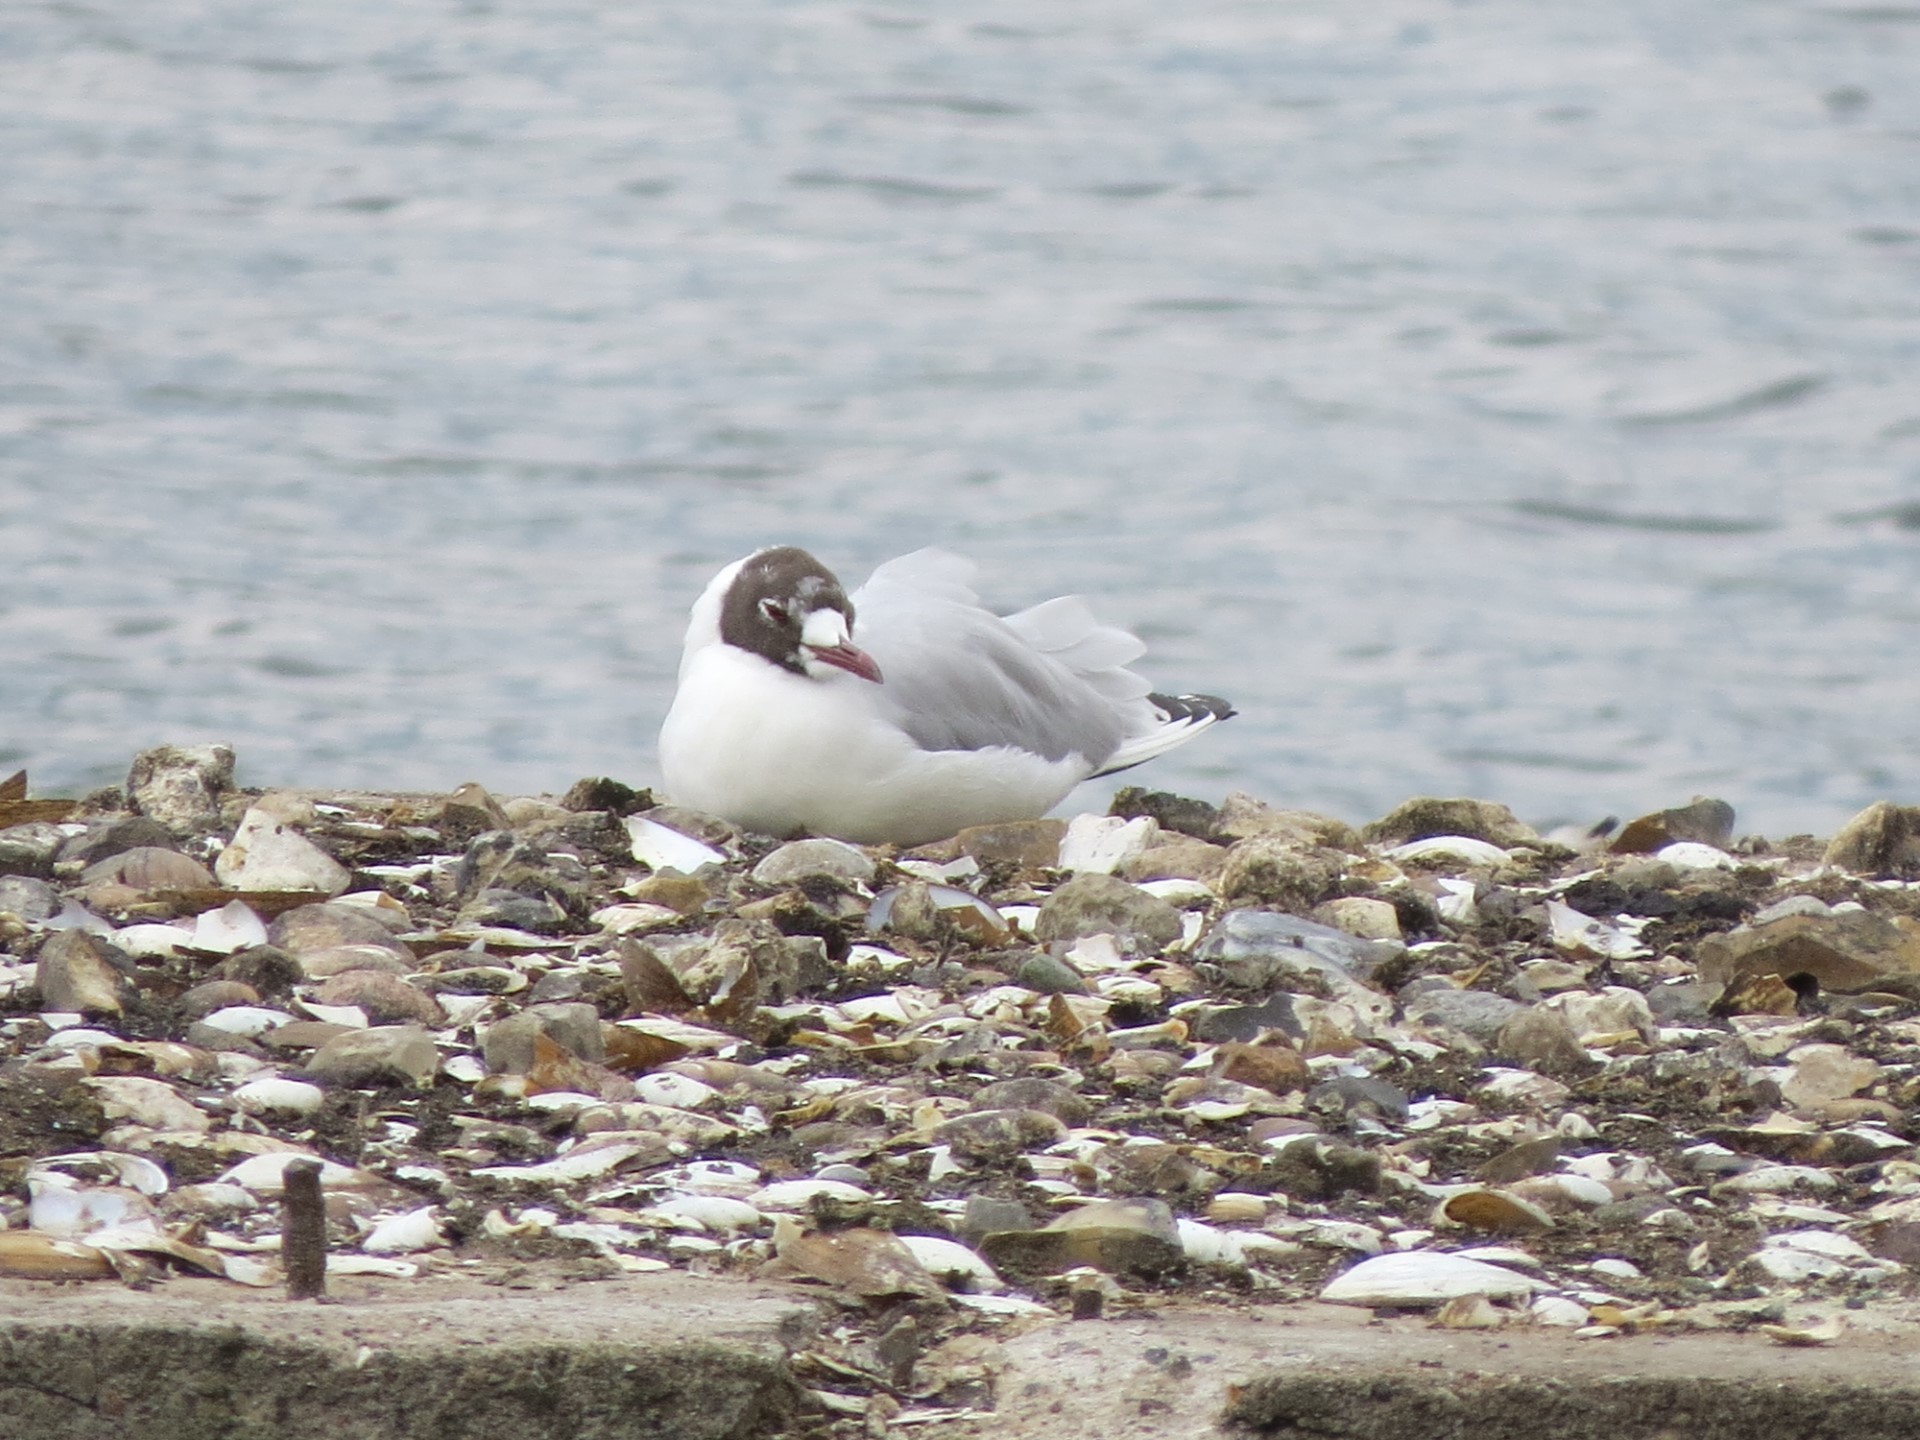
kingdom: Animalia
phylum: Chordata
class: Aves
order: Charadriiformes
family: Laridae
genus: Chroicocephalus
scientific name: Chroicocephalus ridibundus
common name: Black-headed gull
